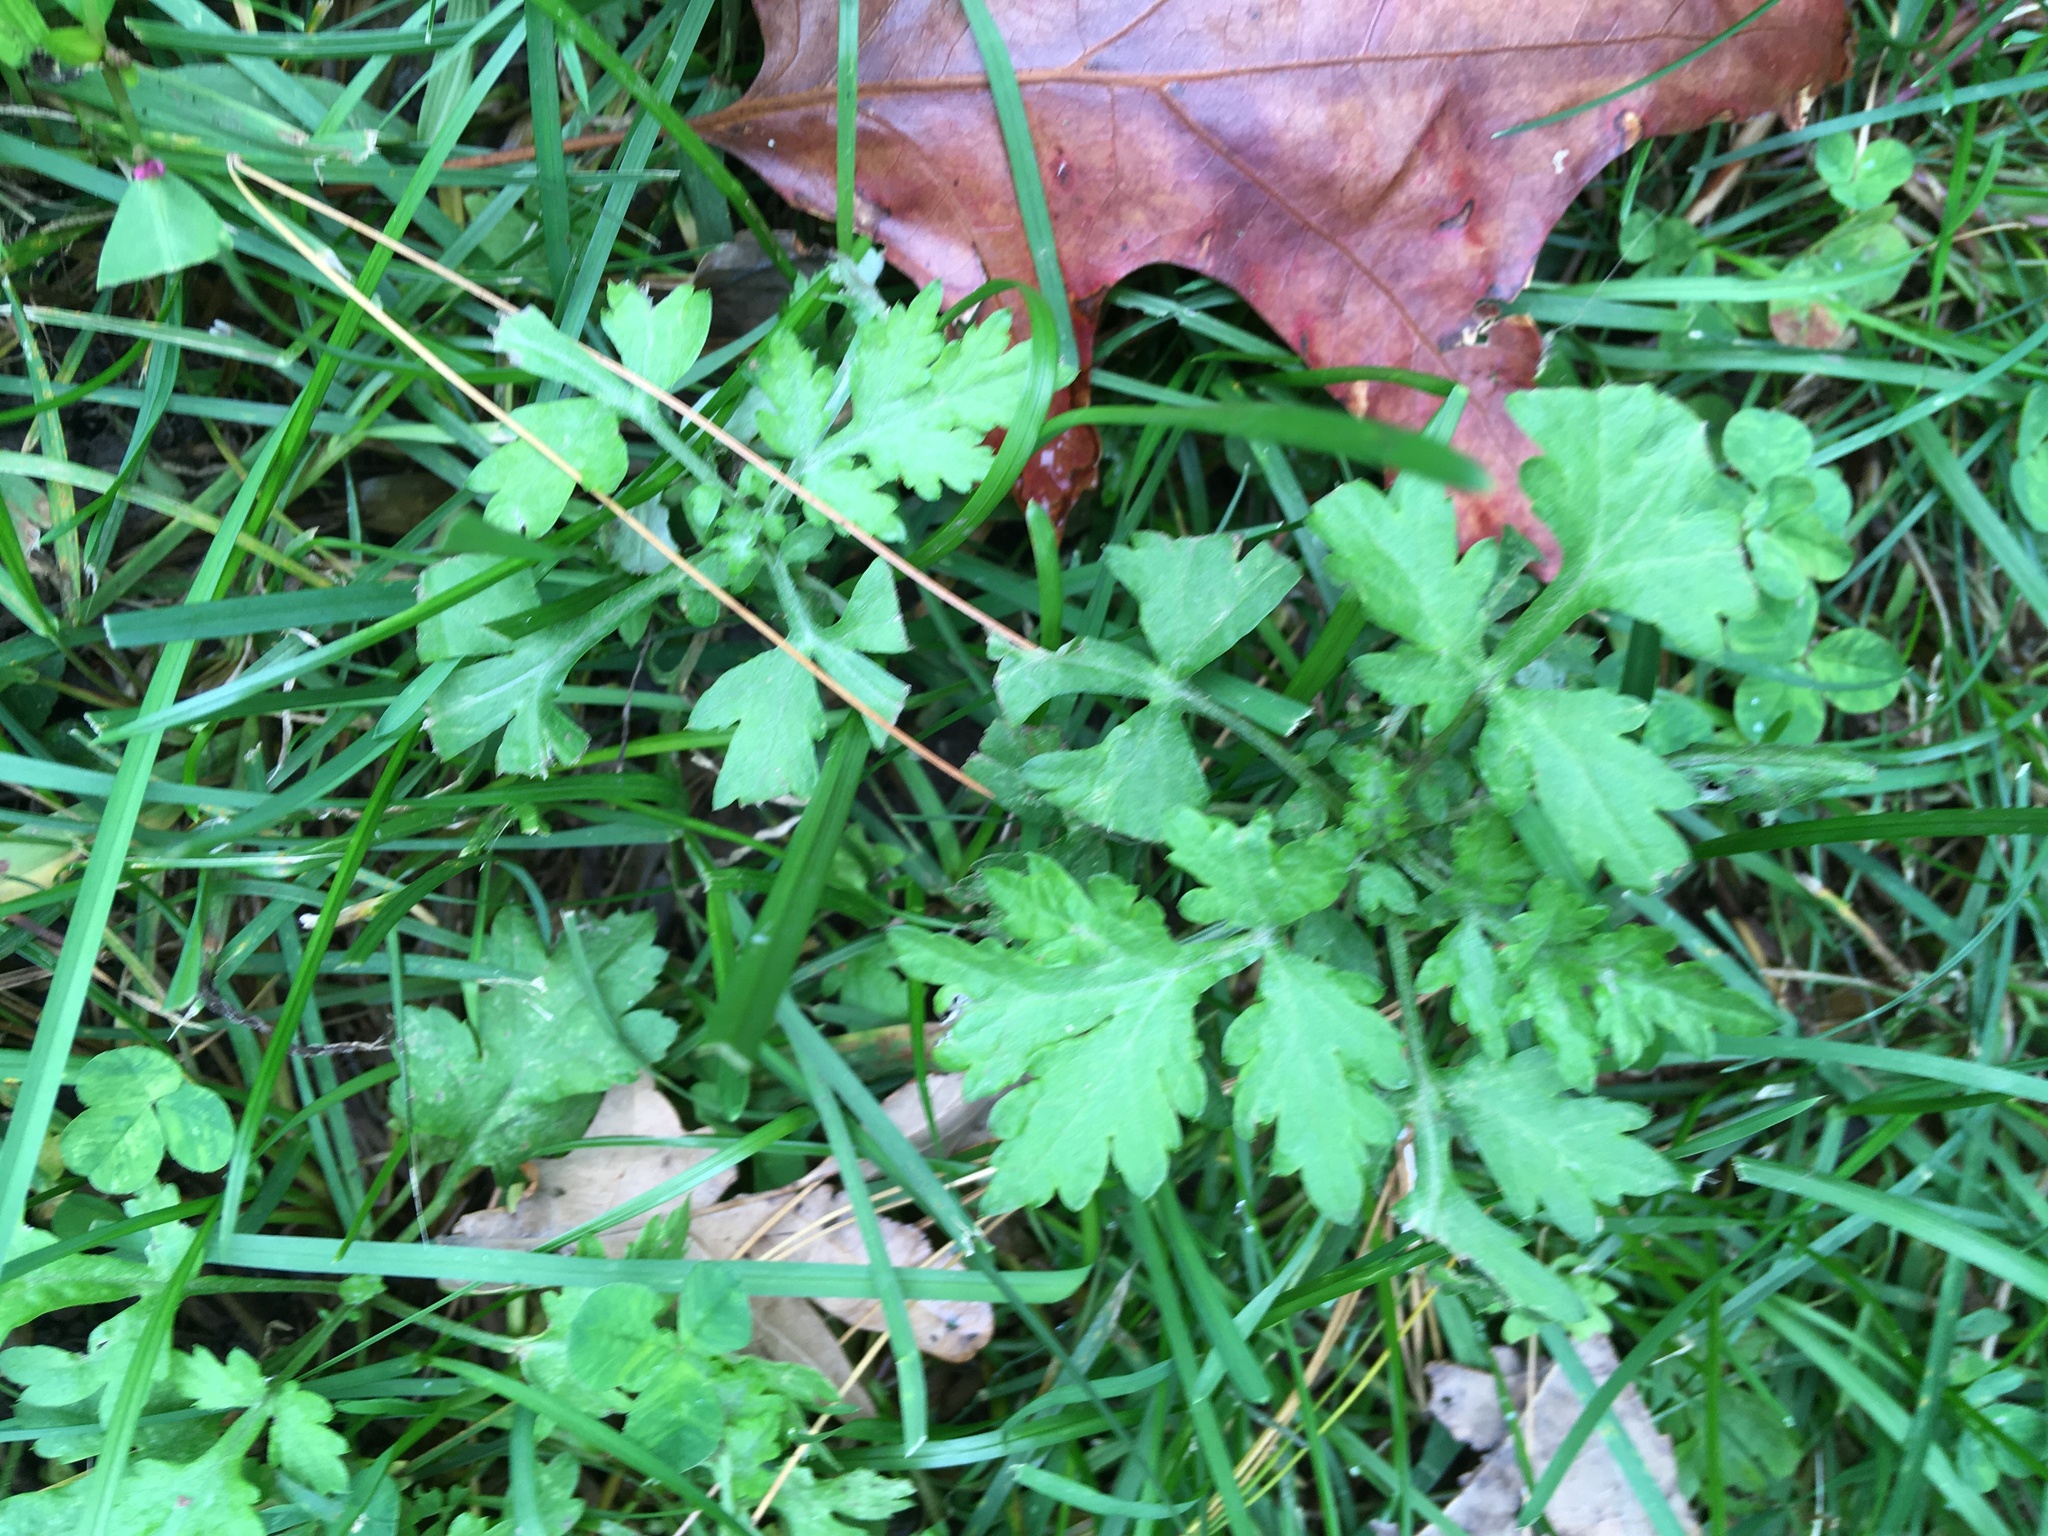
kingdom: Plantae
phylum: Tracheophyta
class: Magnoliopsida
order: Asterales
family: Asteraceae
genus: Artemisia
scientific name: Artemisia vulgaris
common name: Mugwort
